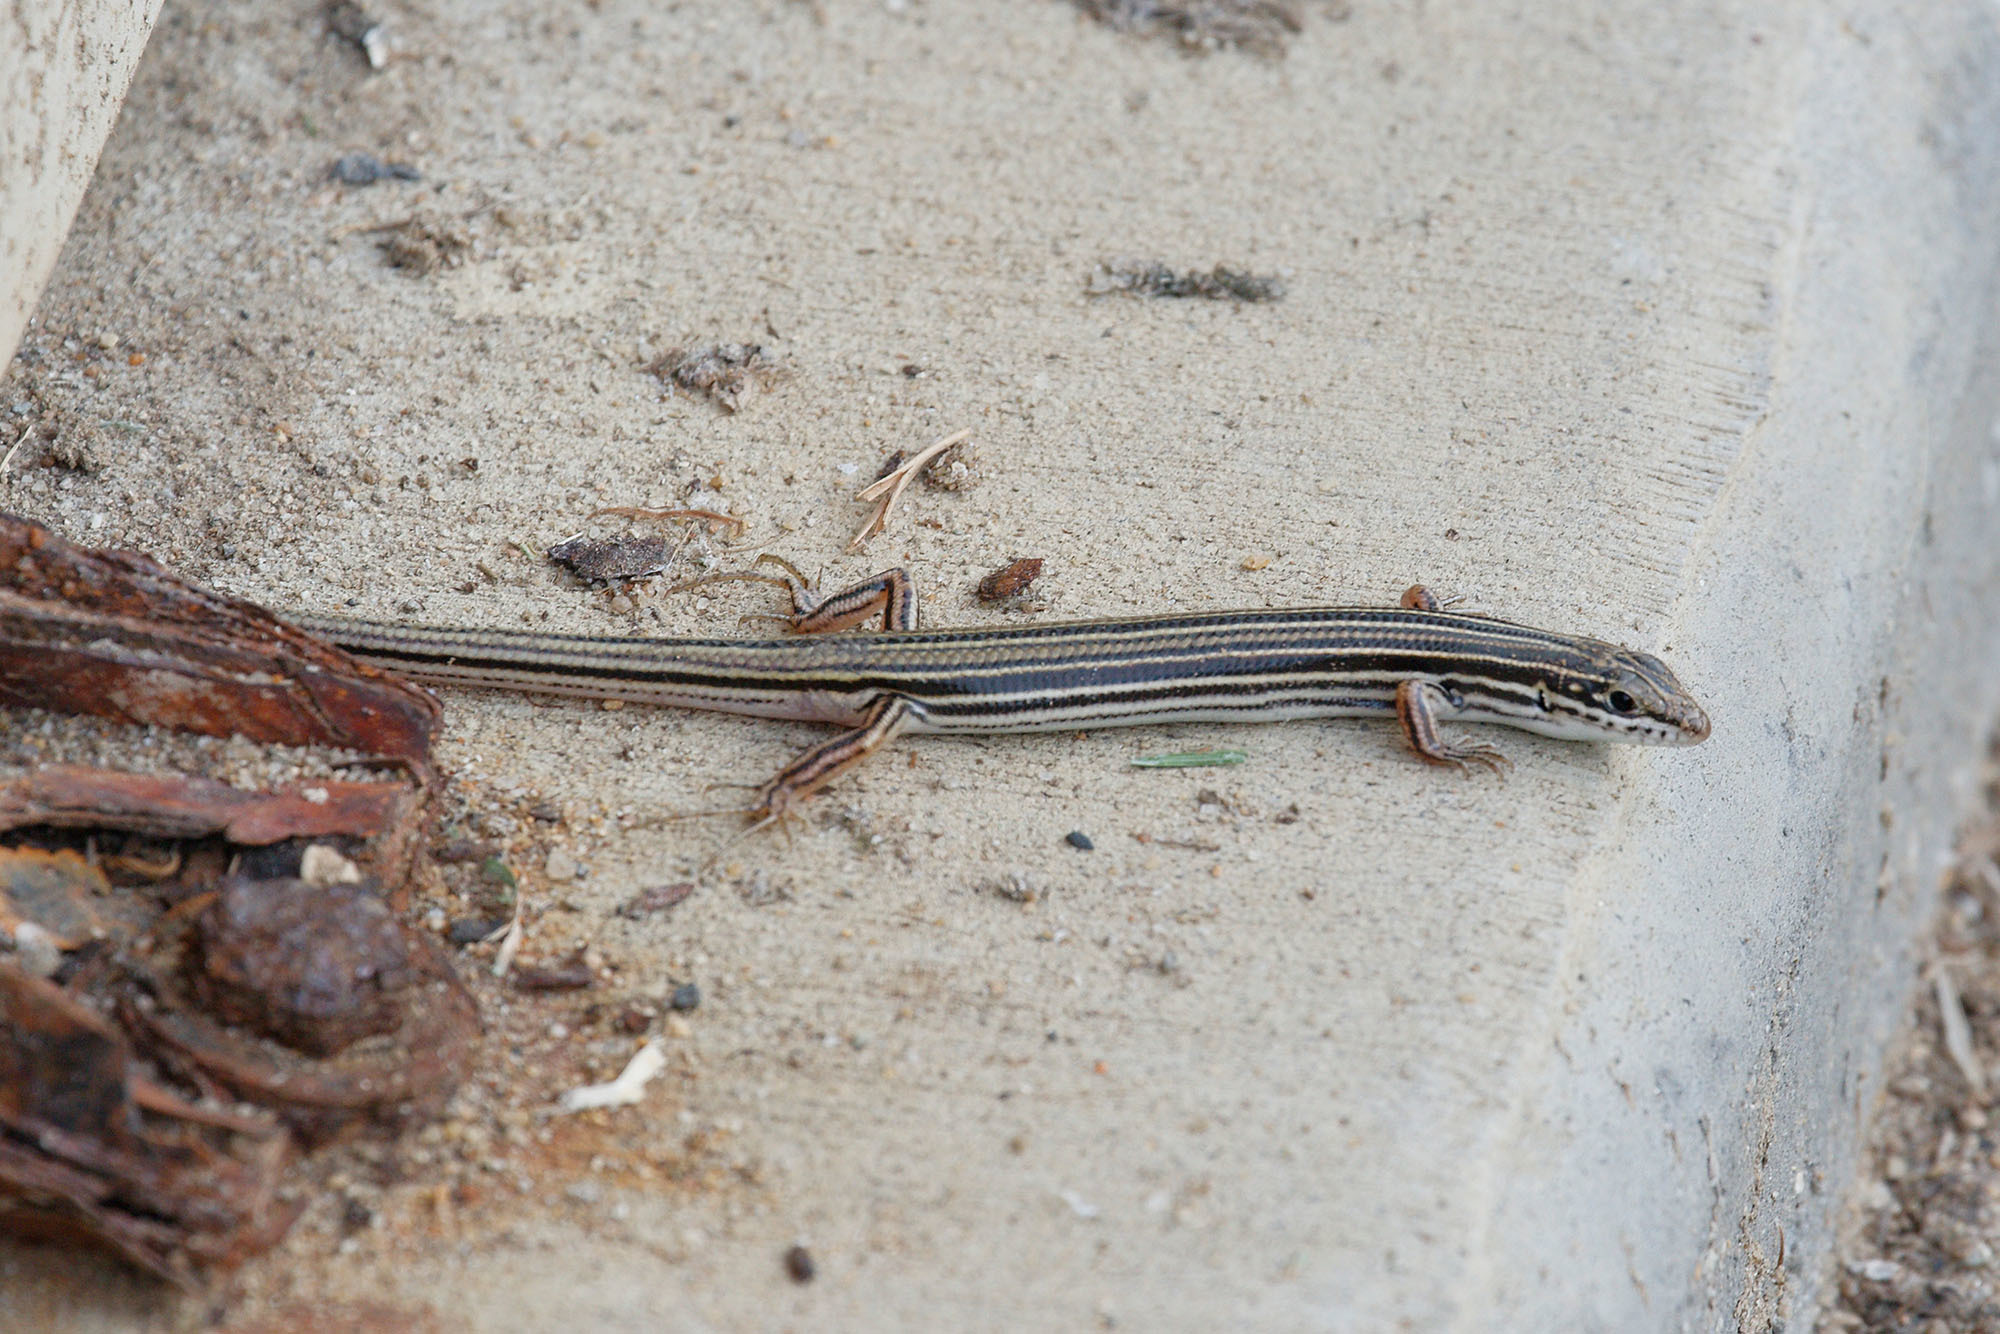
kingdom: Animalia
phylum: Chordata
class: Squamata
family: Scincidae
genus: Ctenotus
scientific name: Ctenotus taeniolatus
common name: Copper-tailed skink
